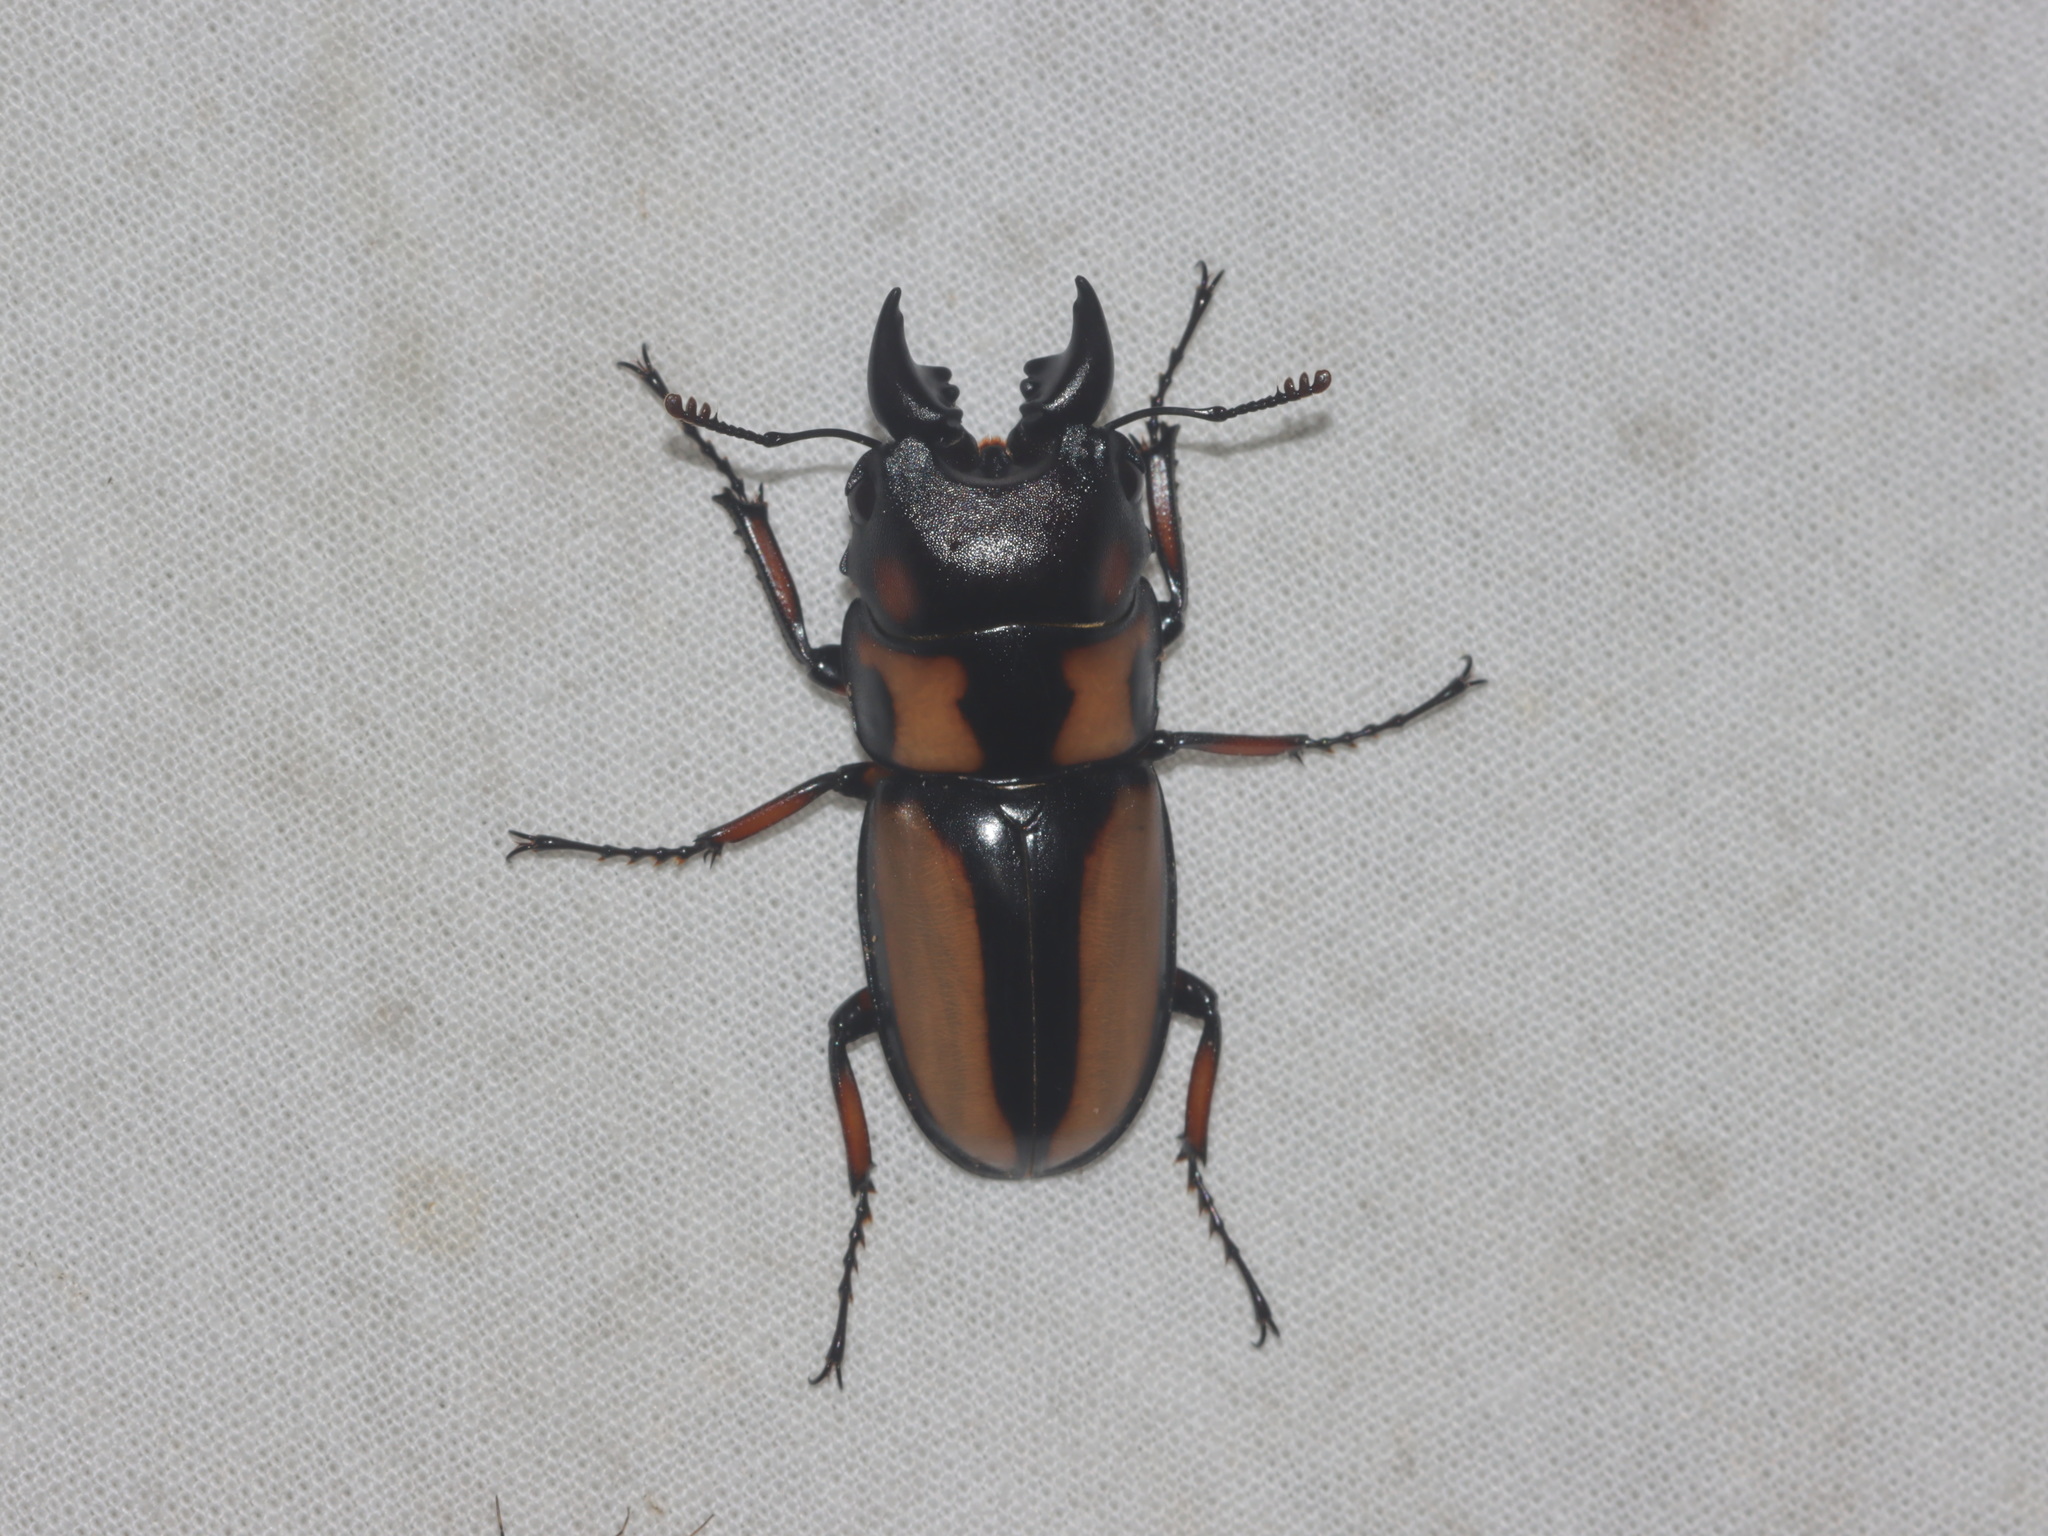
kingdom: Animalia
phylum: Arthropoda
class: Insecta
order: Coleoptera
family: Lucanidae
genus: Prosopocoilus
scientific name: Prosopocoilus biplagiatus
